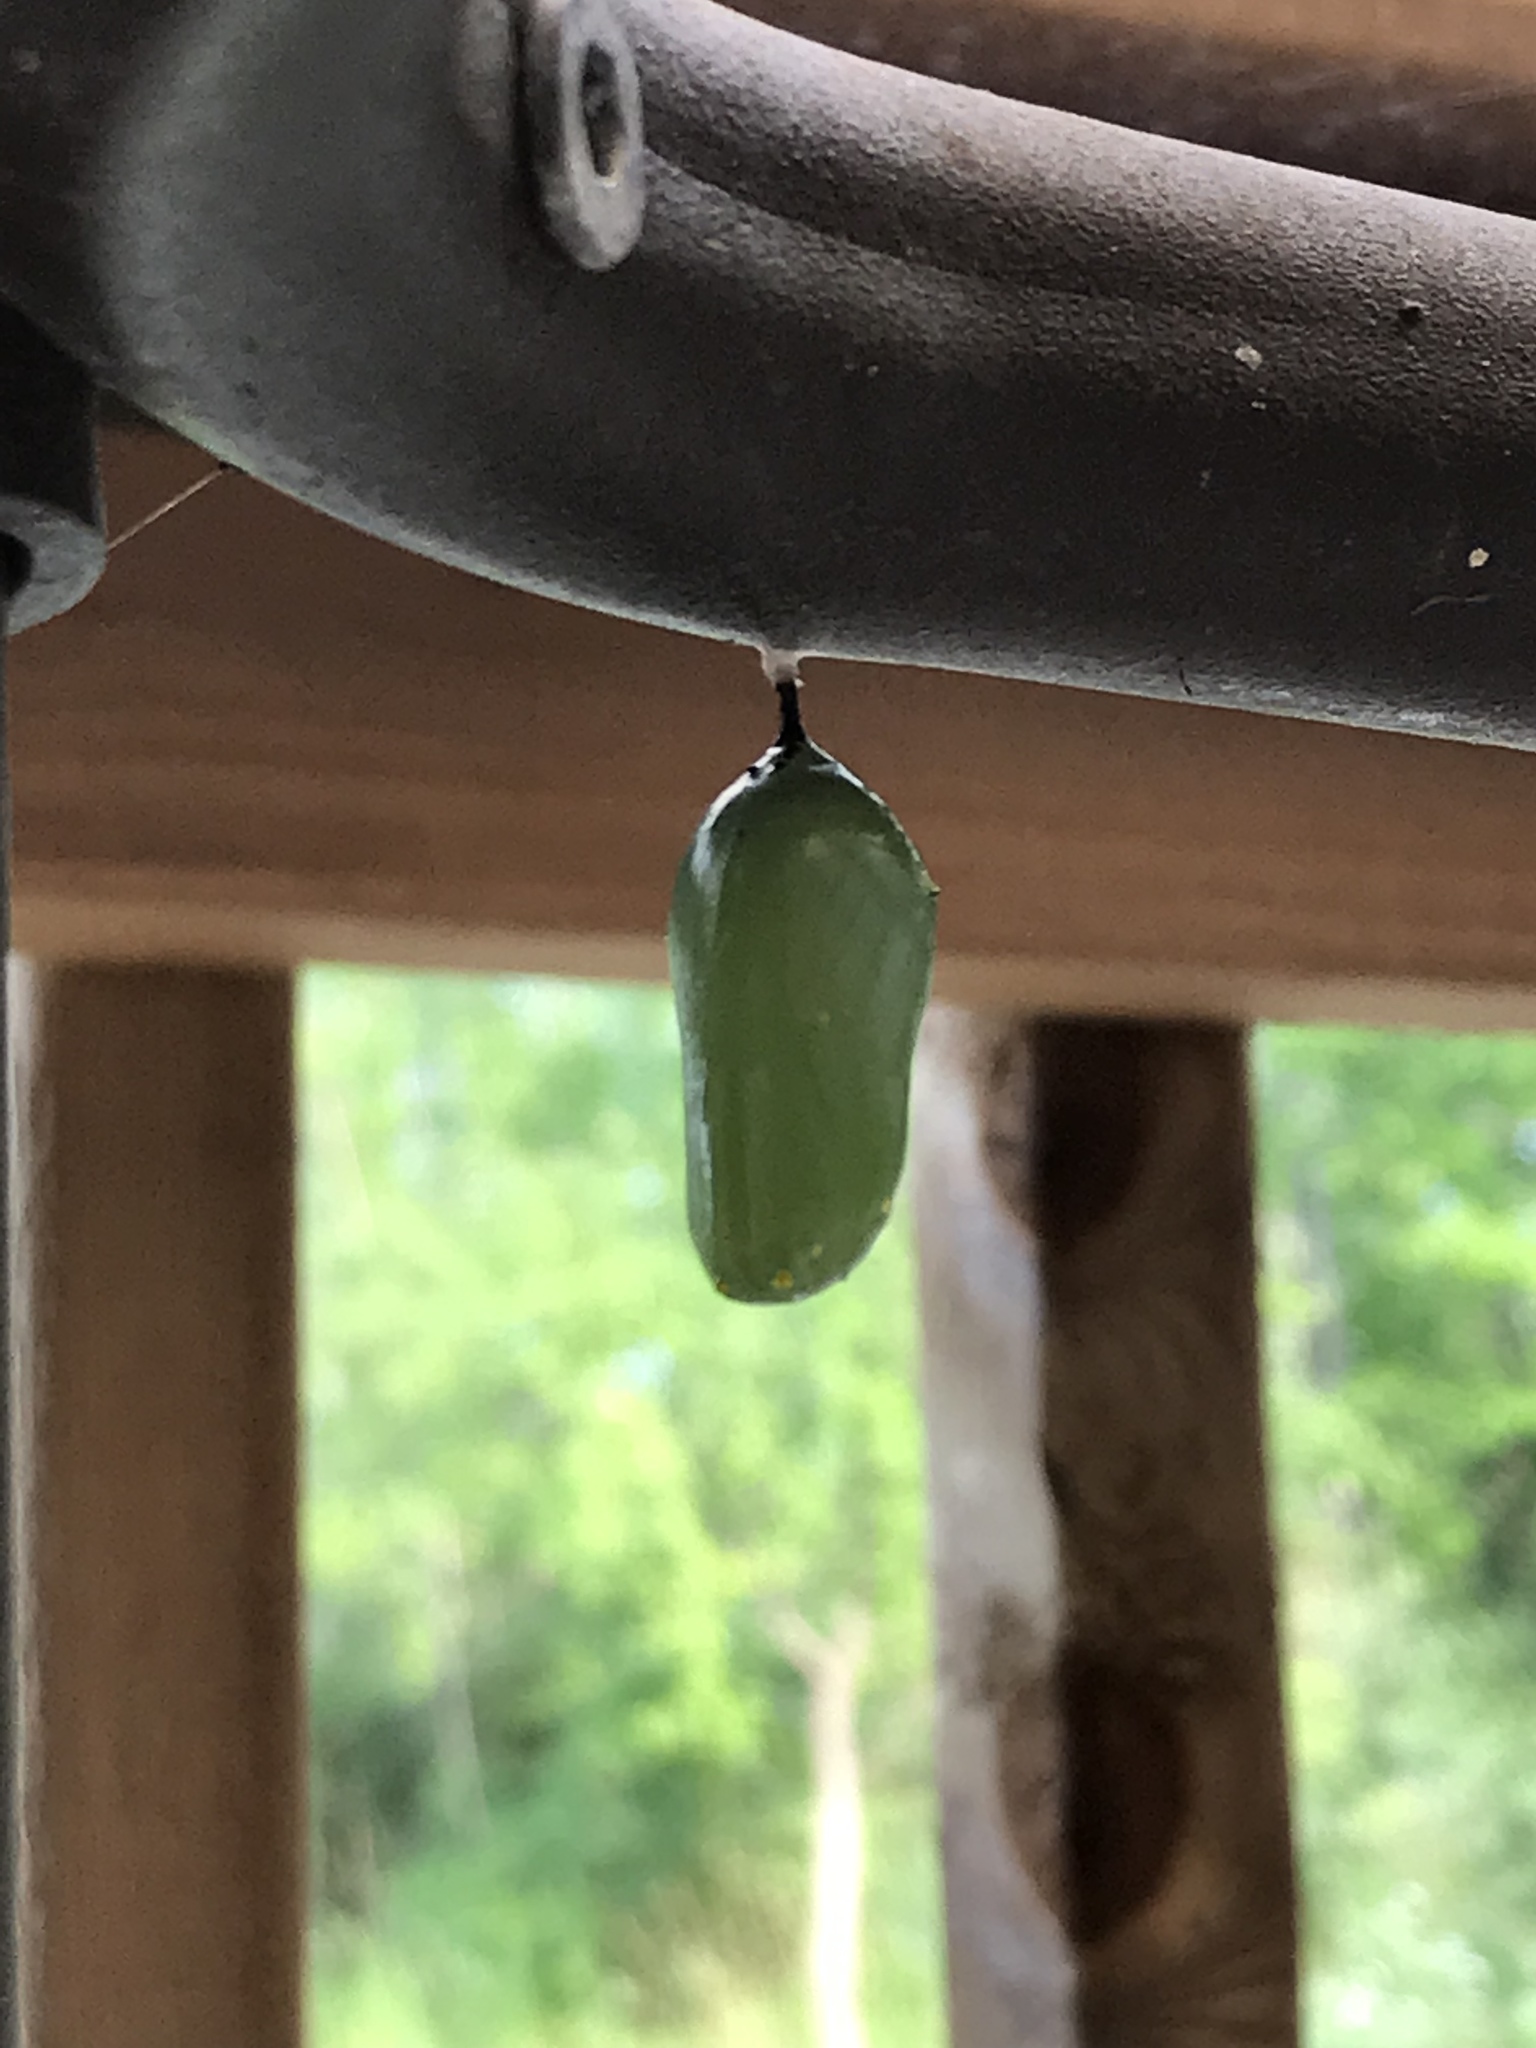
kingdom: Animalia
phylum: Arthropoda
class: Insecta
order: Lepidoptera
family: Nymphalidae
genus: Danaus
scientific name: Danaus plexippus
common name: Monarch
